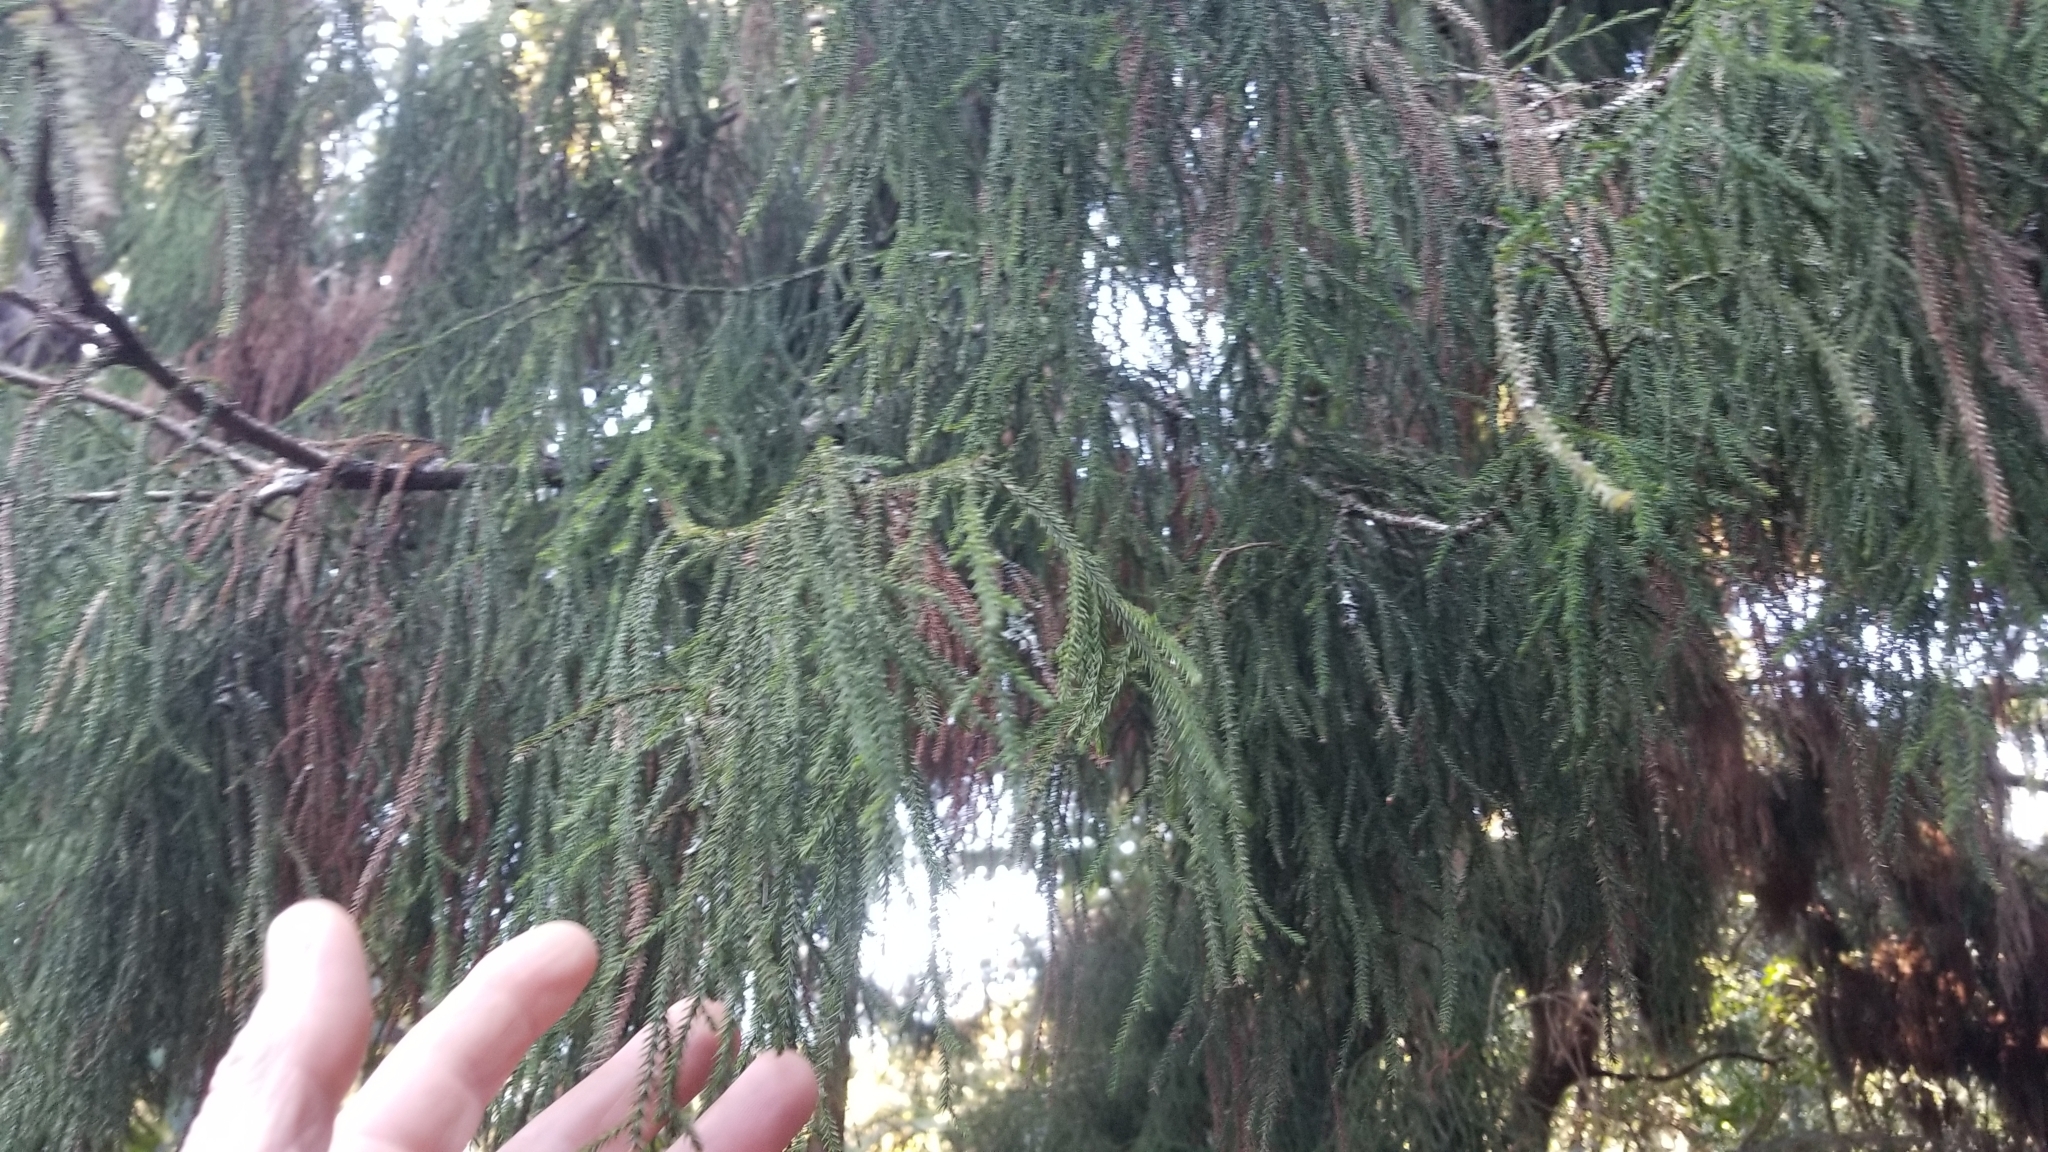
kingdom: Plantae
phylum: Tracheophyta
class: Pinopsida
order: Pinales
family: Podocarpaceae
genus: Dacrydium
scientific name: Dacrydium cupressinum
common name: Red pine
